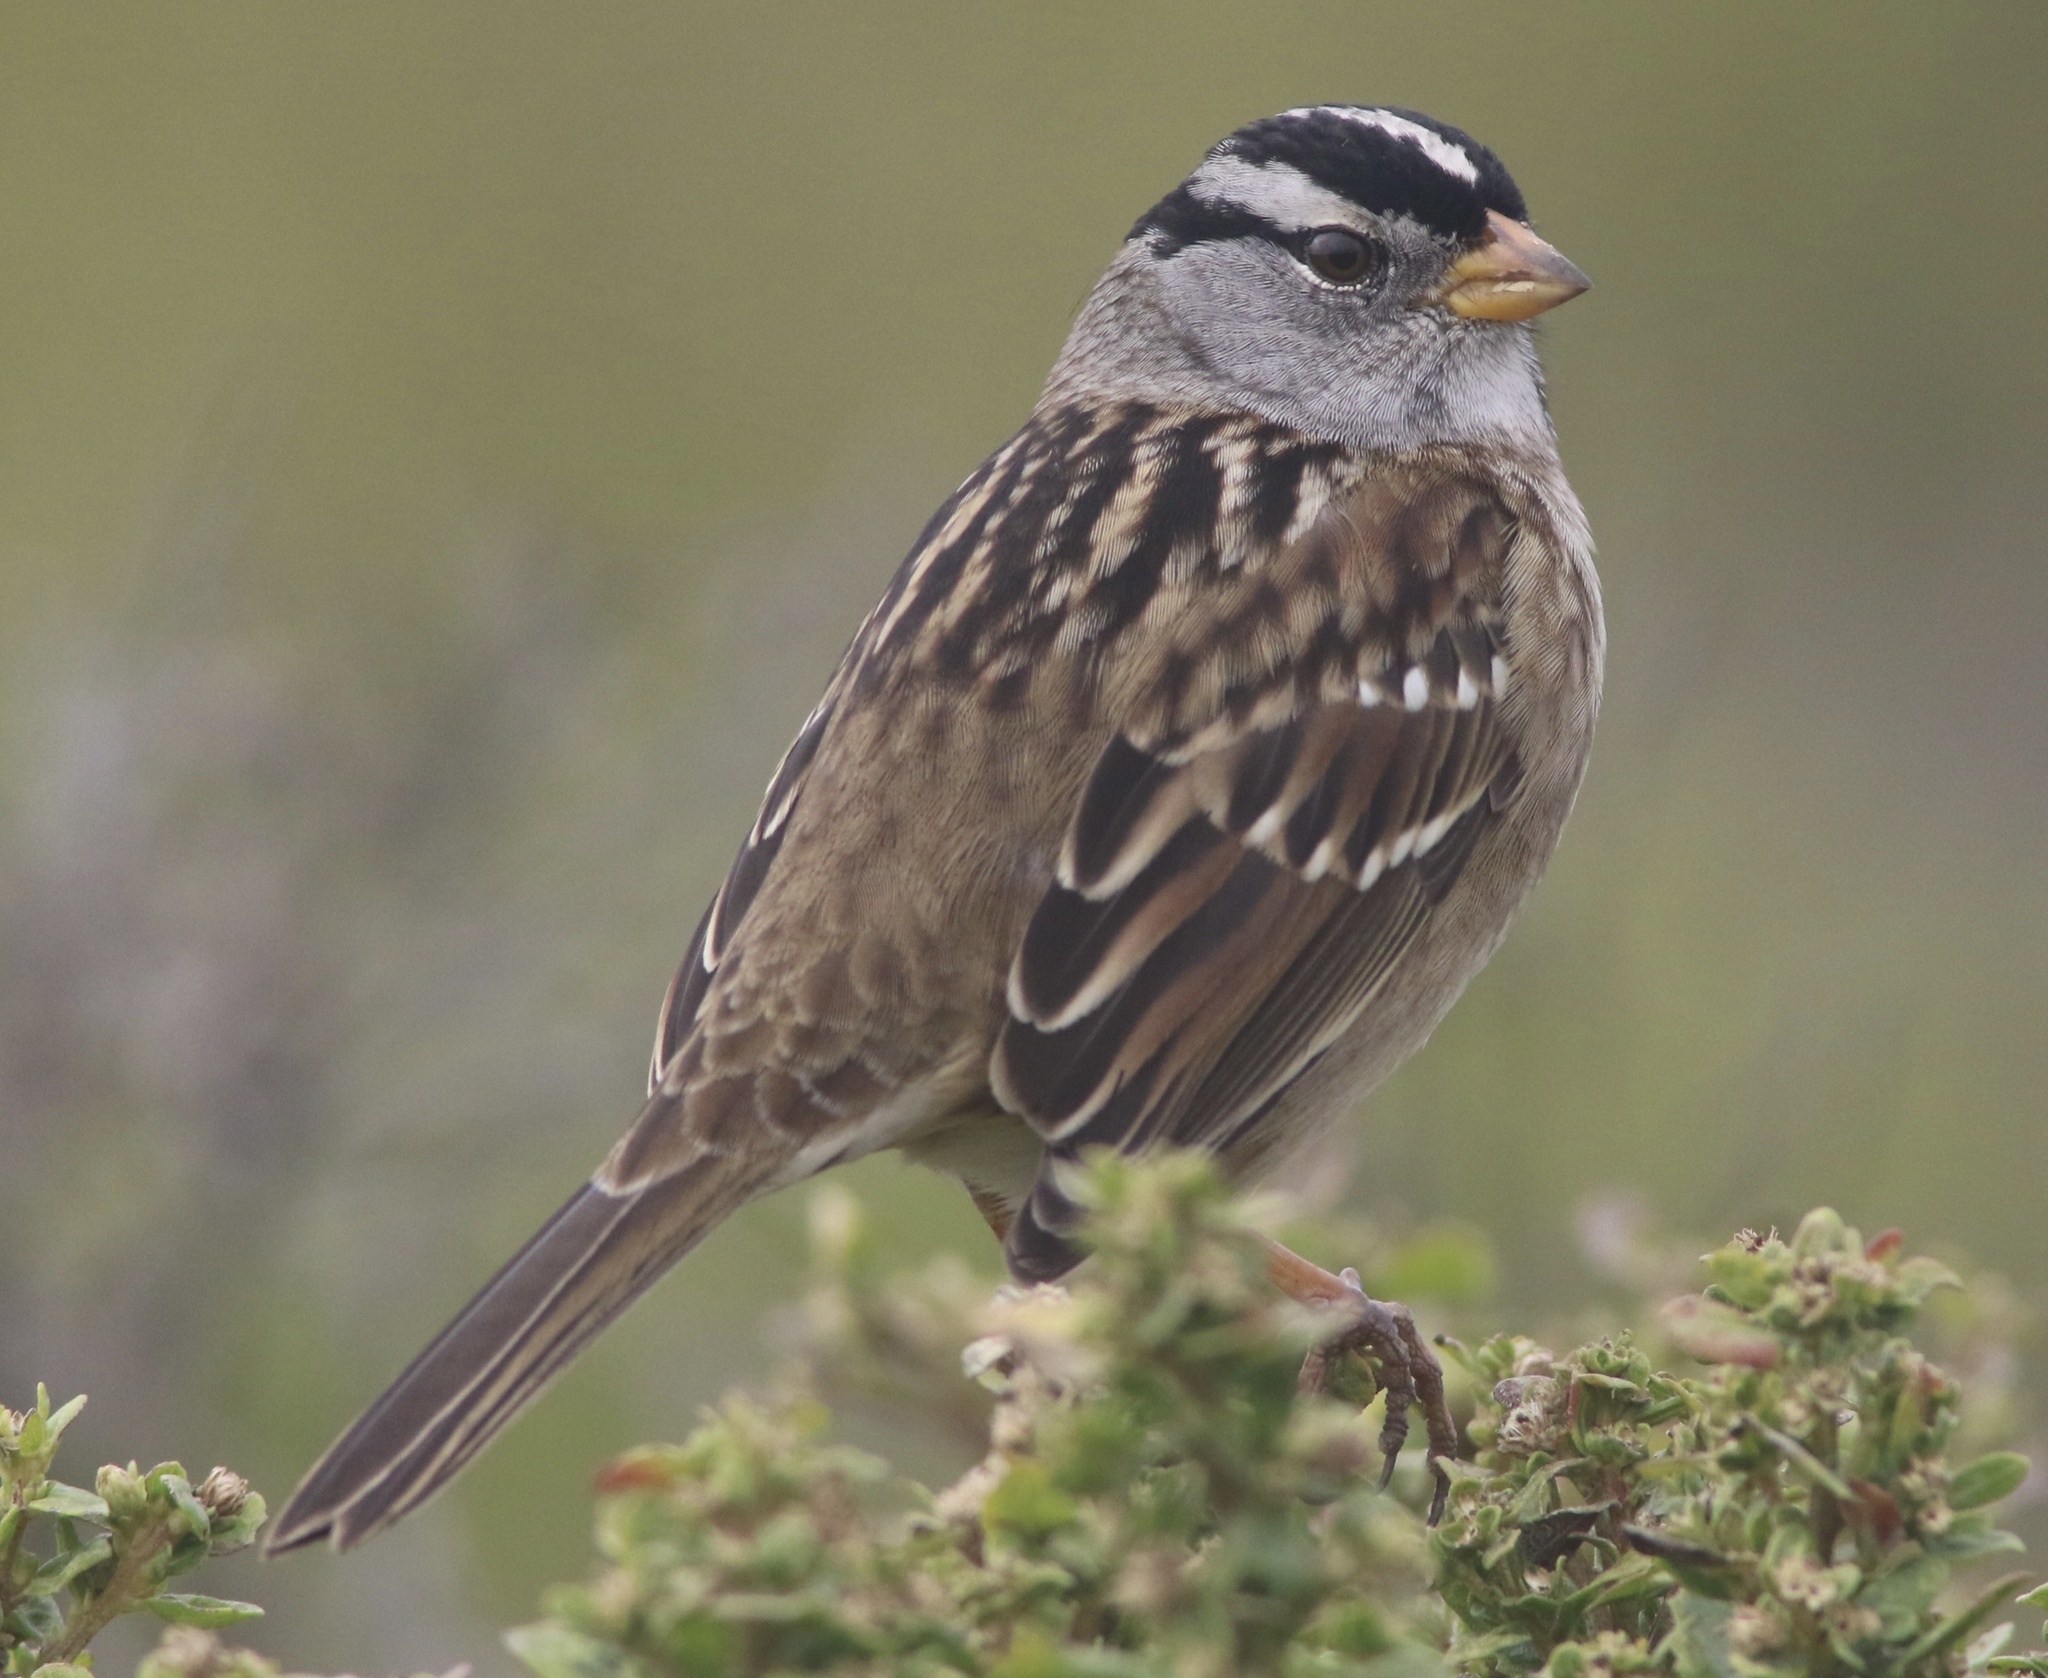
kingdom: Animalia
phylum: Chordata
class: Aves
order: Passeriformes
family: Passerellidae
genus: Zonotrichia
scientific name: Zonotrichia leucophrys
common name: White-crowned sparrow
